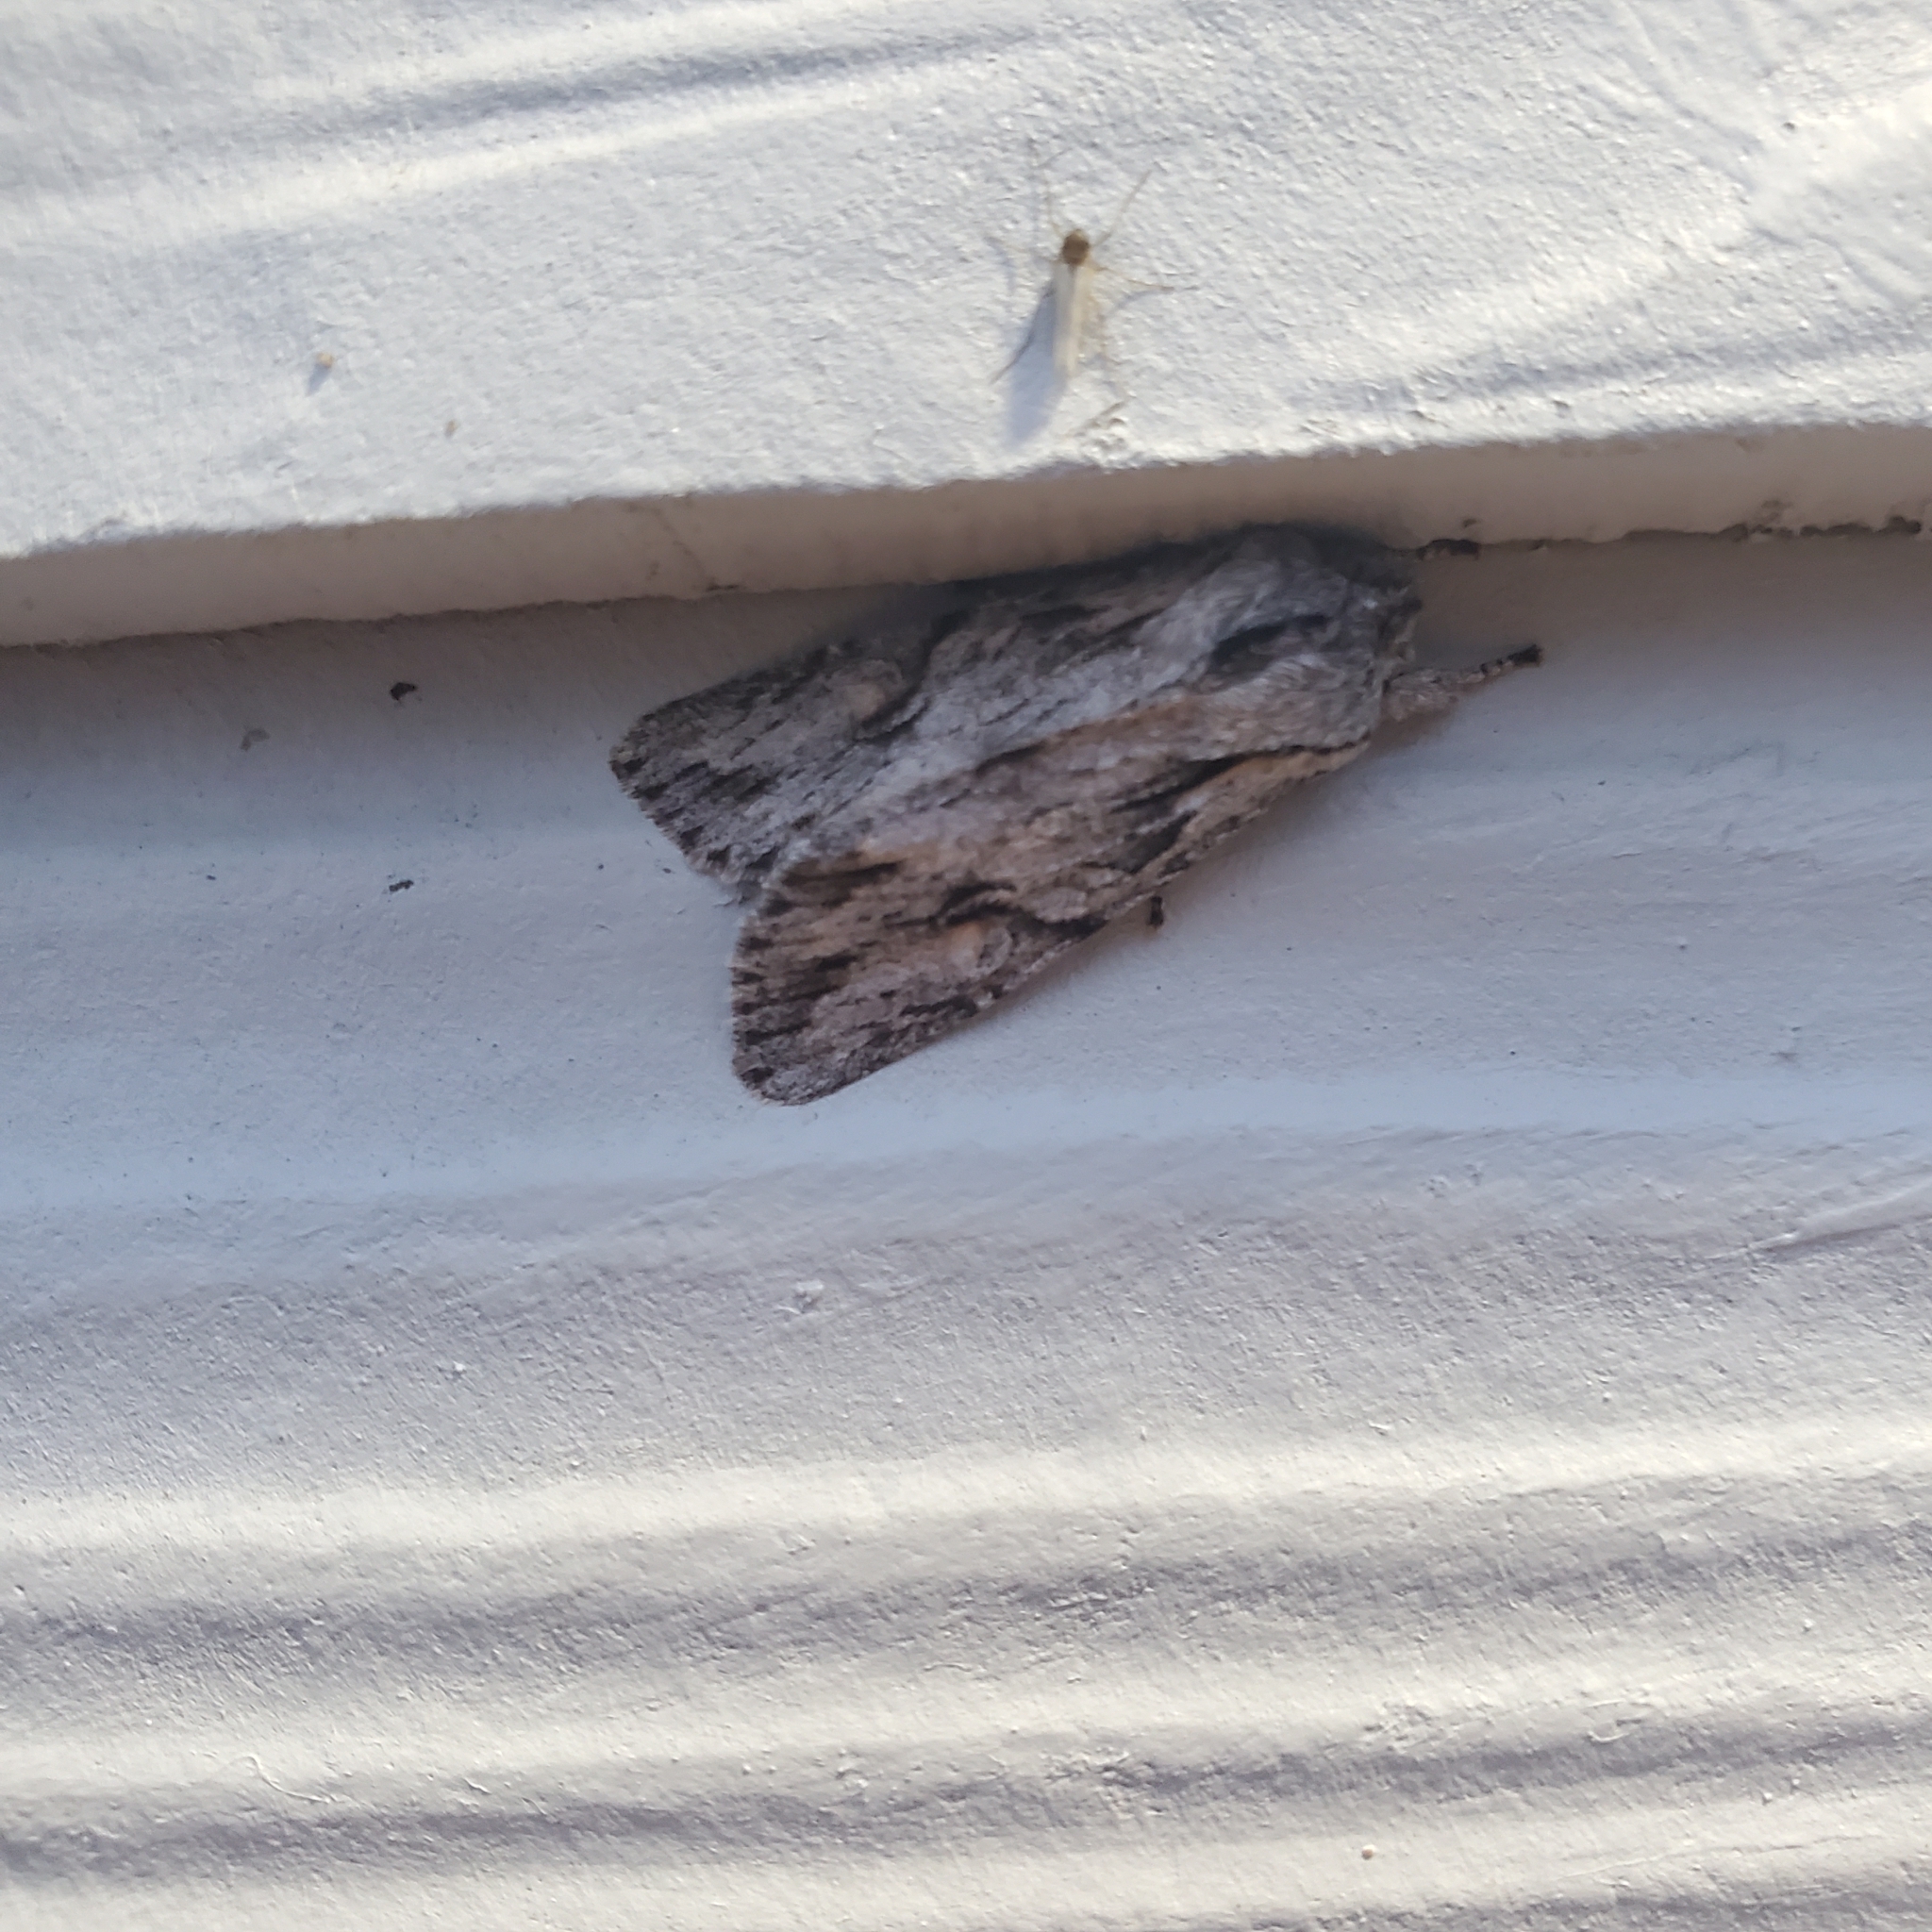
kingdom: Animalia
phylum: Arthropoda
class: Insecta
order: Lepidoptera
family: Noctuidae
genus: Egira
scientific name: Egira crucialis
